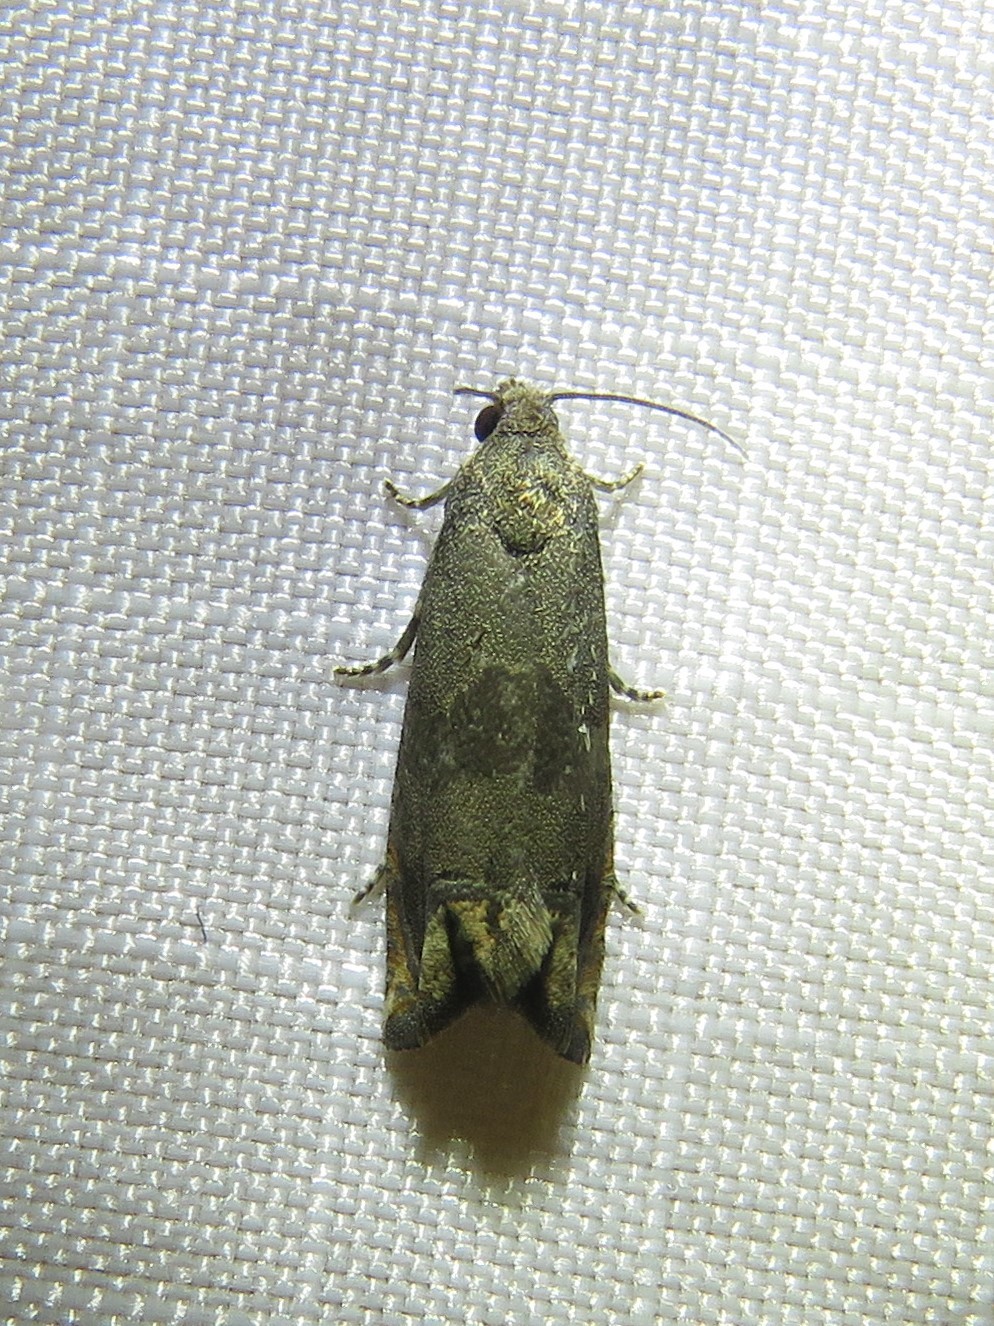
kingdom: Animalia
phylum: Arthropoda
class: Insecta
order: Lepidoptera
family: Tortricidae
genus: Epiblema
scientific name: Epiblema strenuana
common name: Ragweed borer moth
